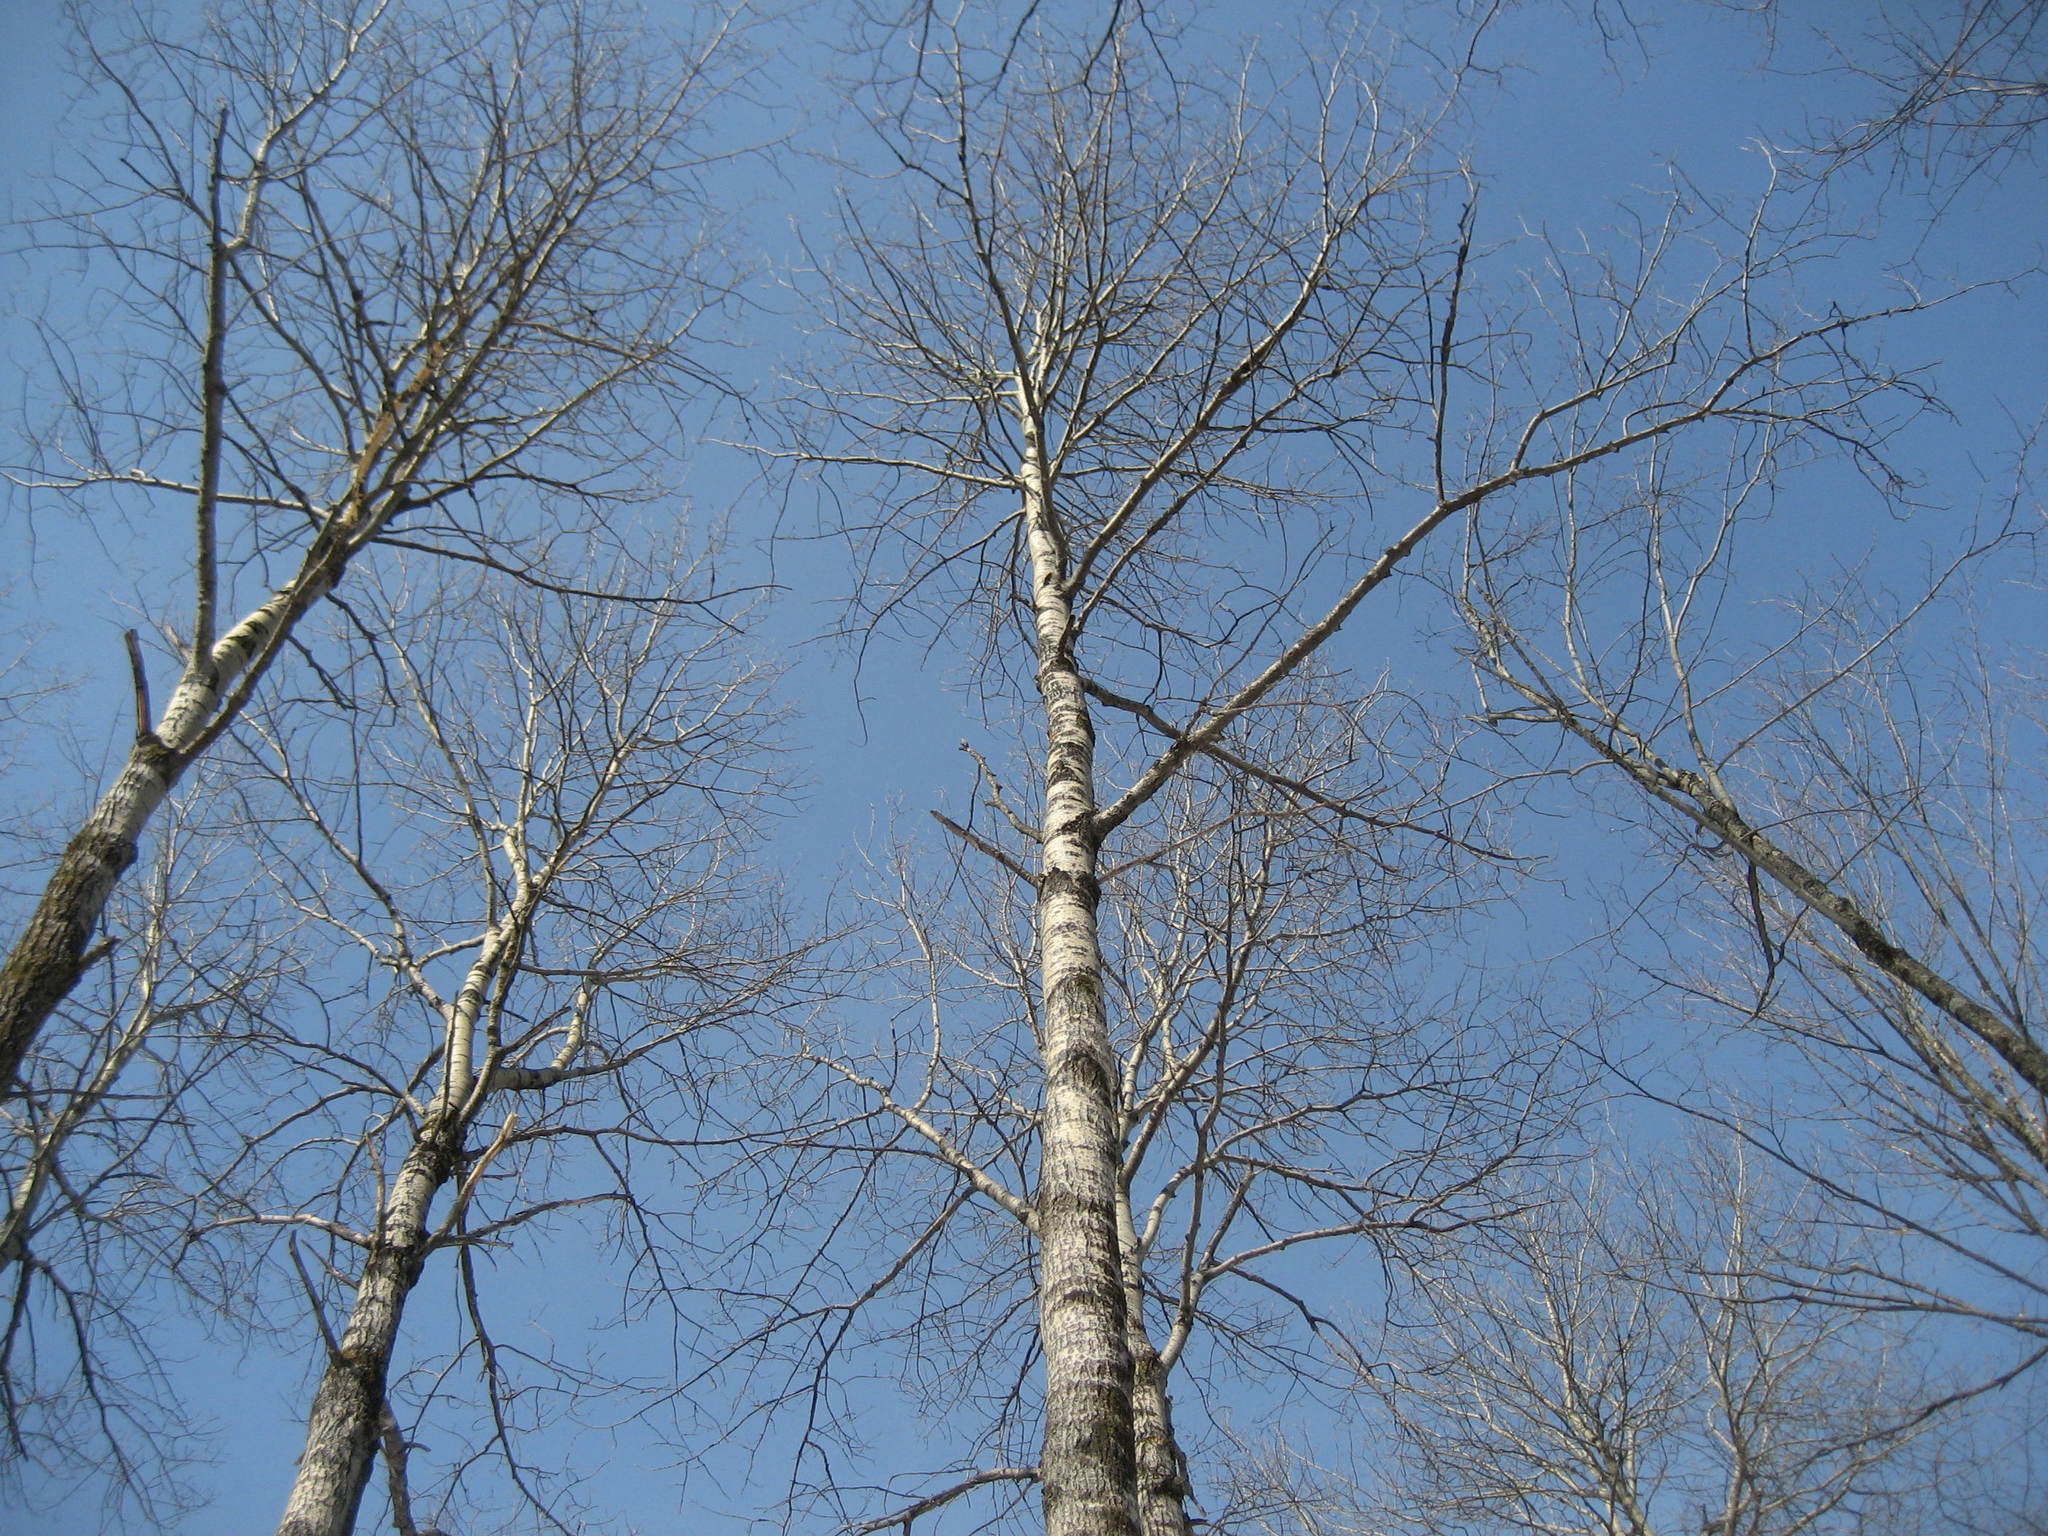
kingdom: Plantae
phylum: Tracheophyta
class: Magnoliopsida
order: Malpighiales
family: Salicaceae
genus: Populus
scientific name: Populus grandidentata
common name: Bigtooth aspen
